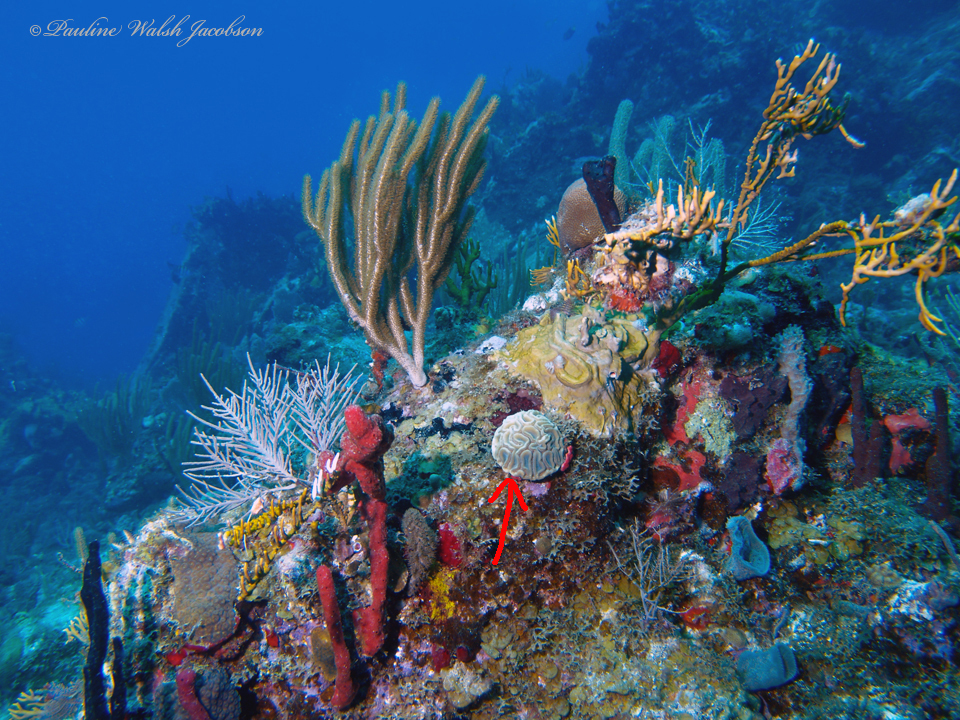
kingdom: Animalia
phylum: Cnidaria
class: Anthozoa
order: Scleractinia
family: Faviidae
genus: Diploria
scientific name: Diploria labyrinthiformis
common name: Grooved brain coral
